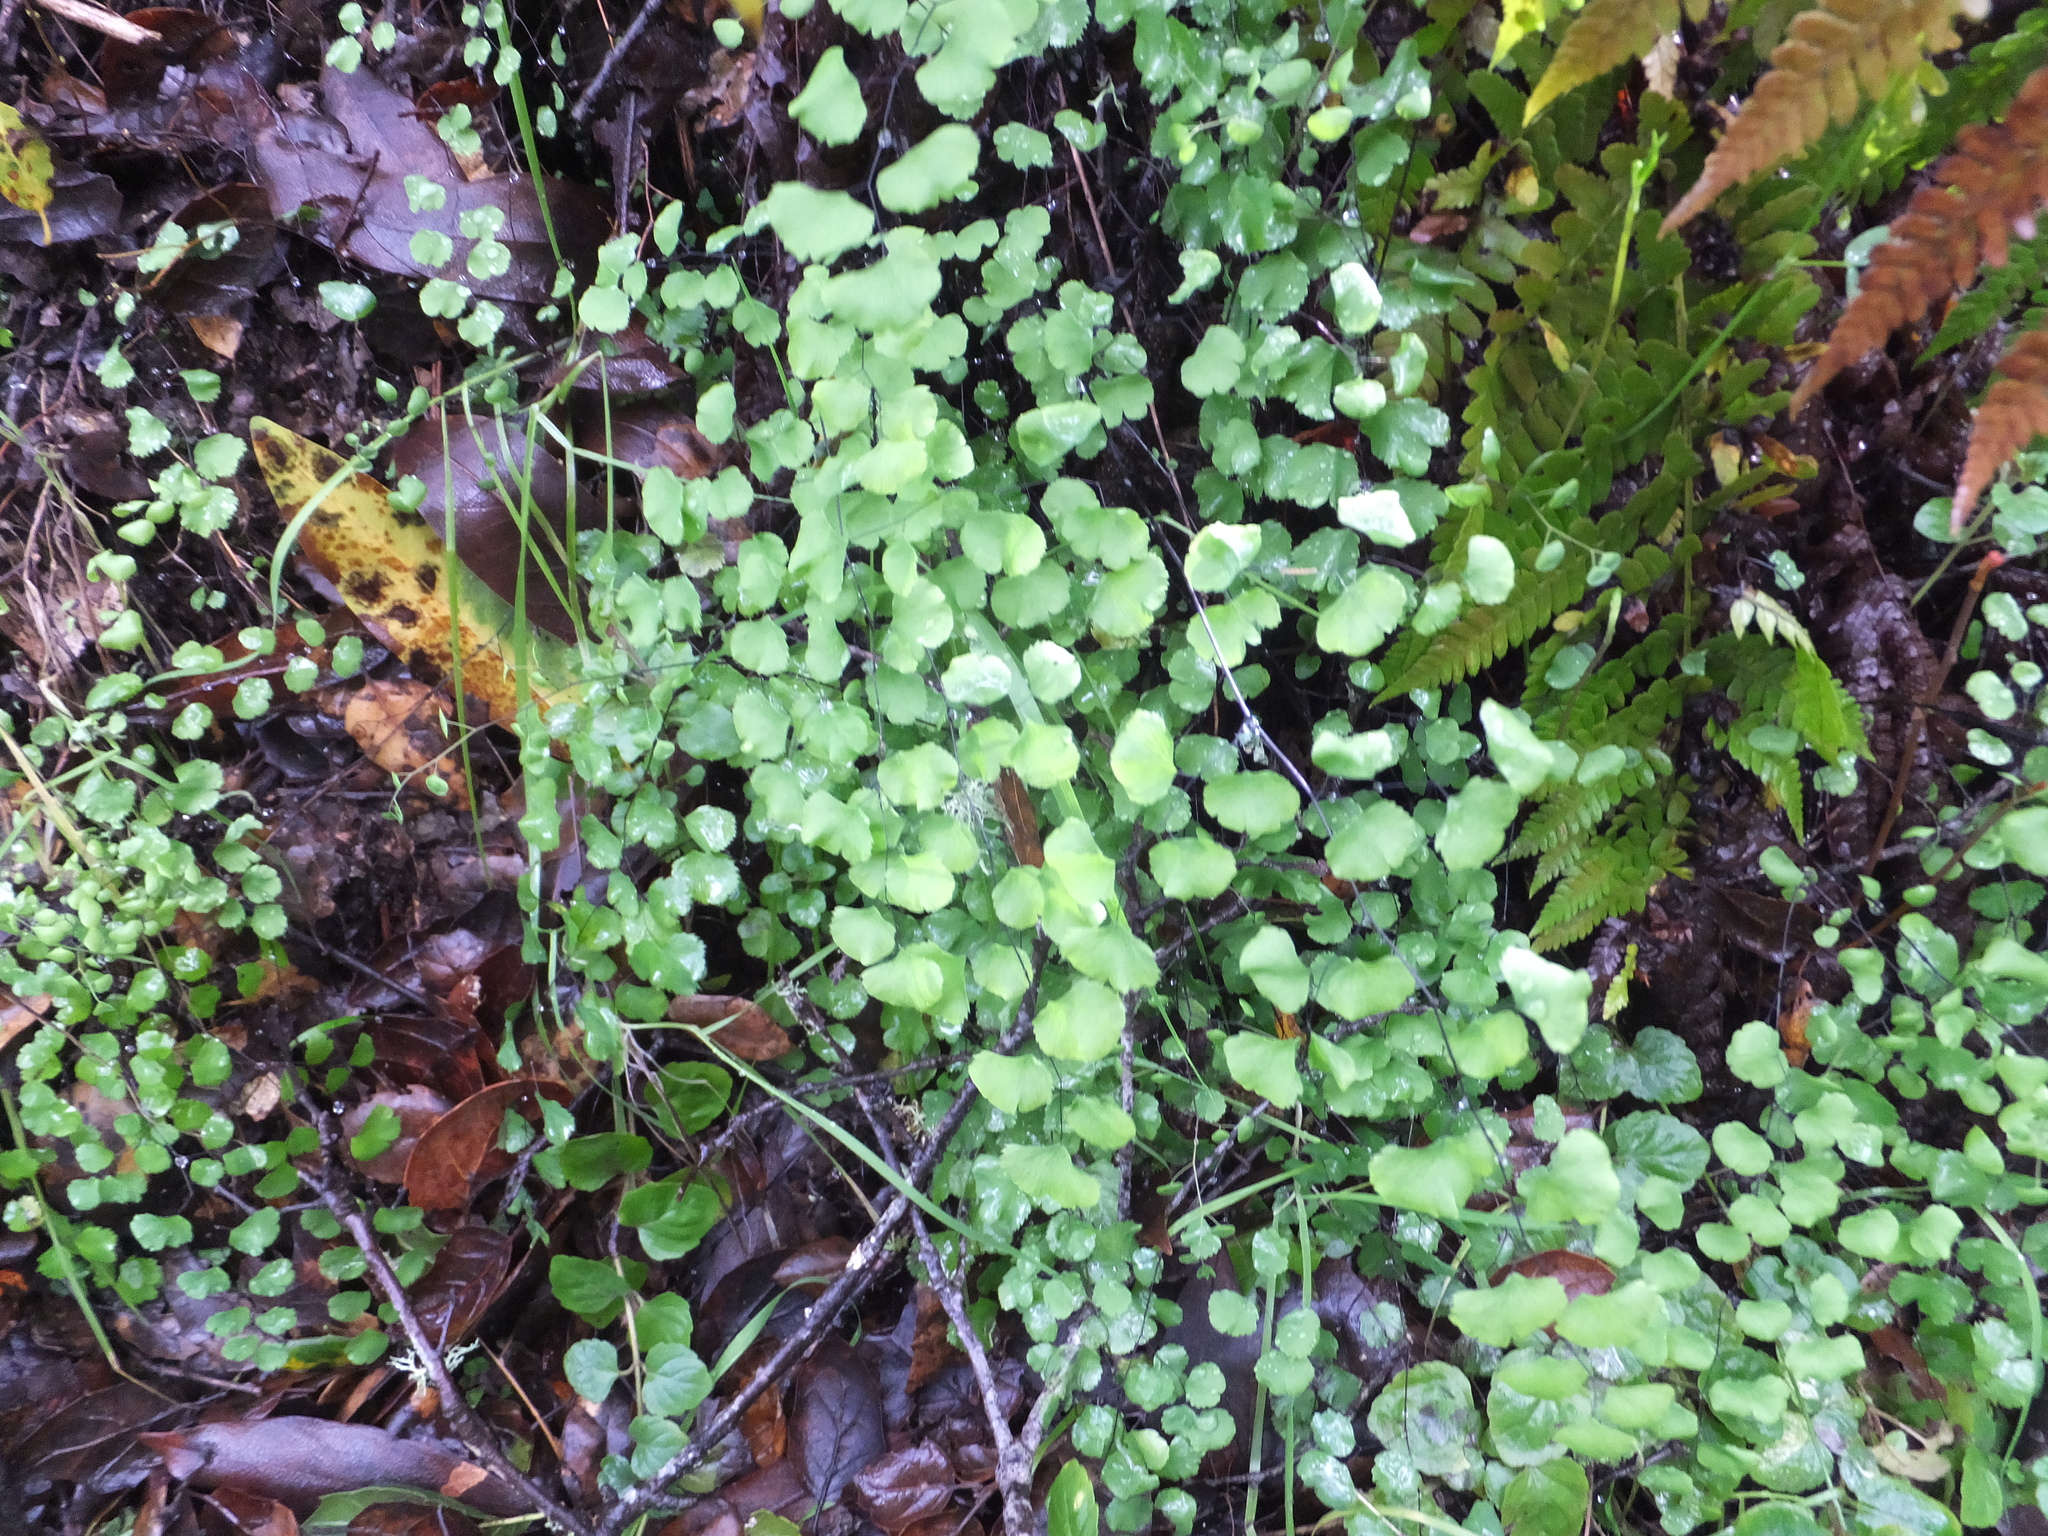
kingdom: Plantae
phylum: Tracheophyta
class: Polypodiopsida
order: Polypodiales
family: Pteridaceae
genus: Adiantum
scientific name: Adiantum jordanii
